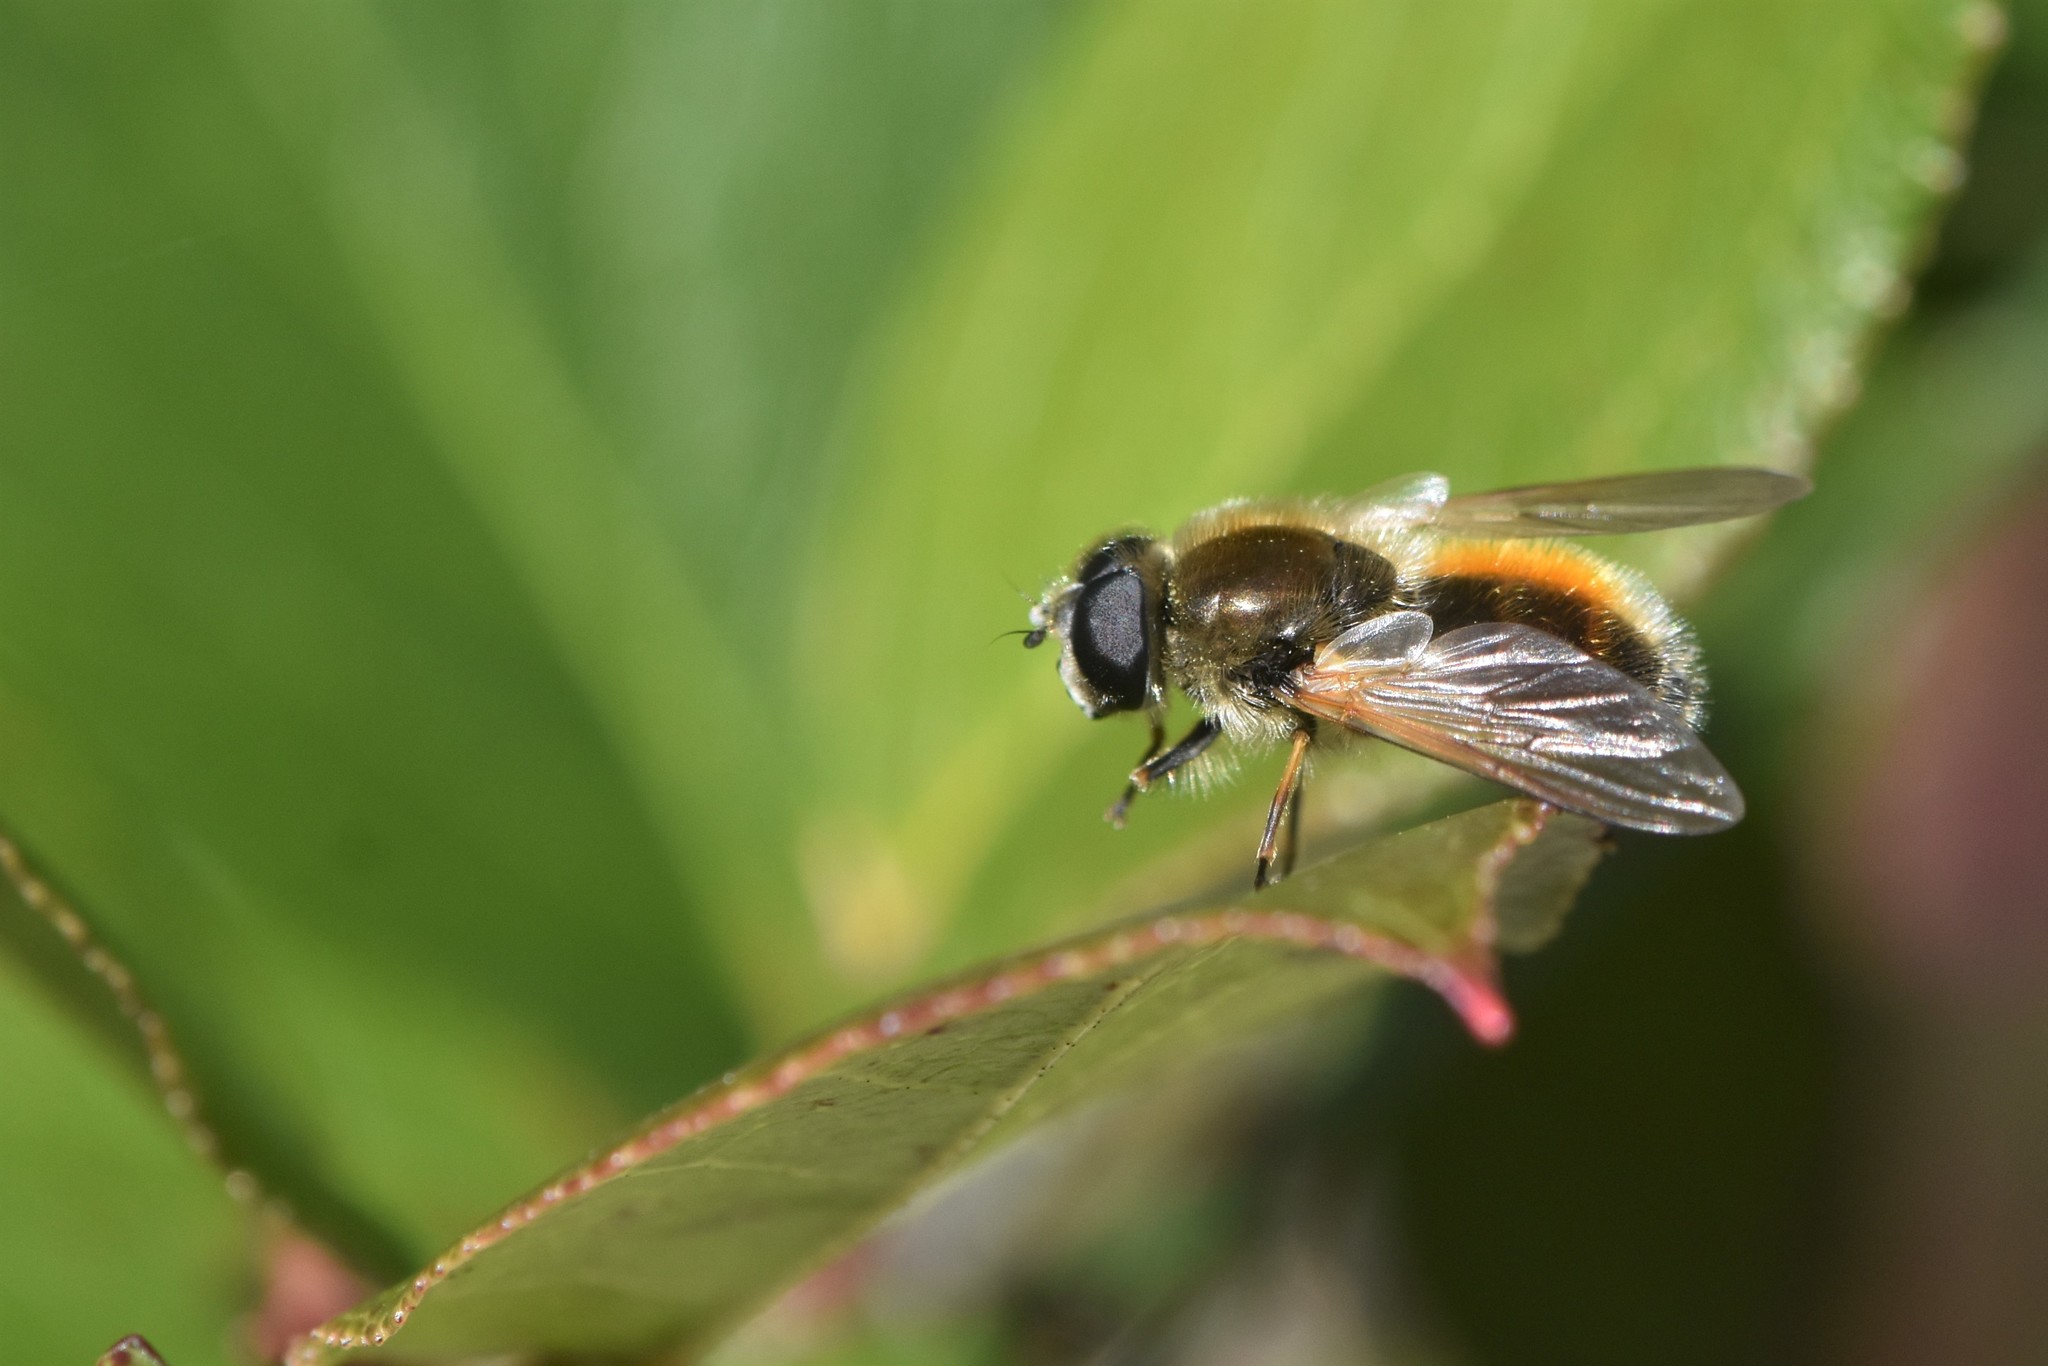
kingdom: Animalia
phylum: Arthropoda
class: Insecta
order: Diptera
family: Syrphidae
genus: Cheilosia
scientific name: Cheilosia corydon
